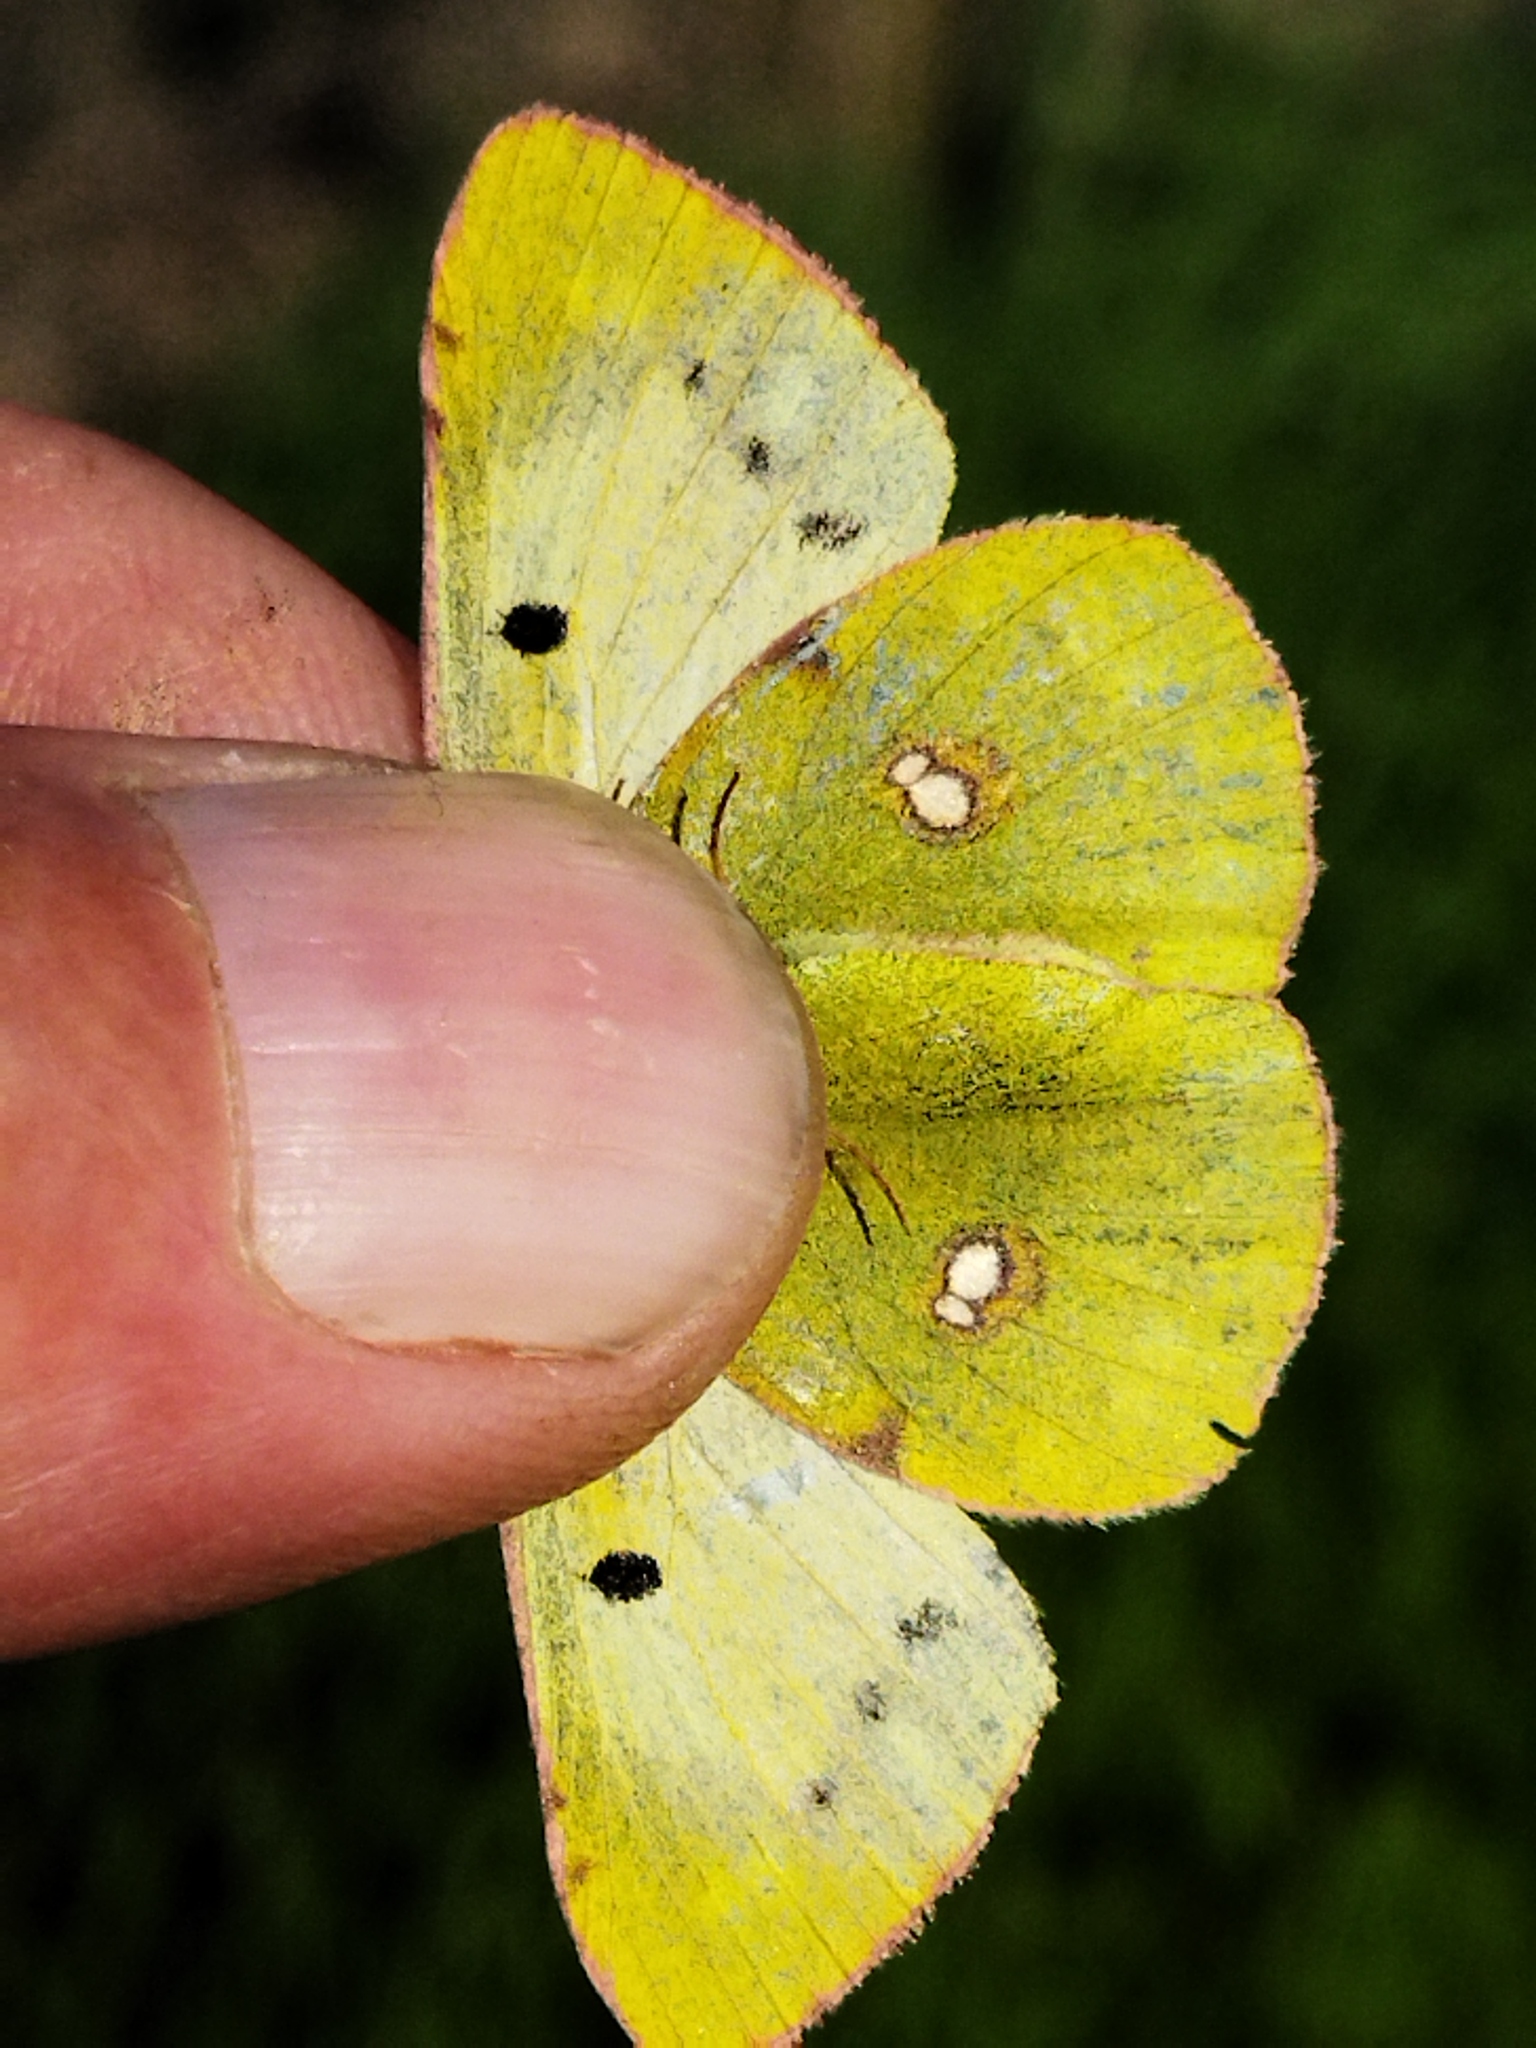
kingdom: Animalia
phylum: Arthropoda
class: Insecta
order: Lepidoptera
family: Pieridae
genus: Colias
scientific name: Colias croceus
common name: Clouded yellow
